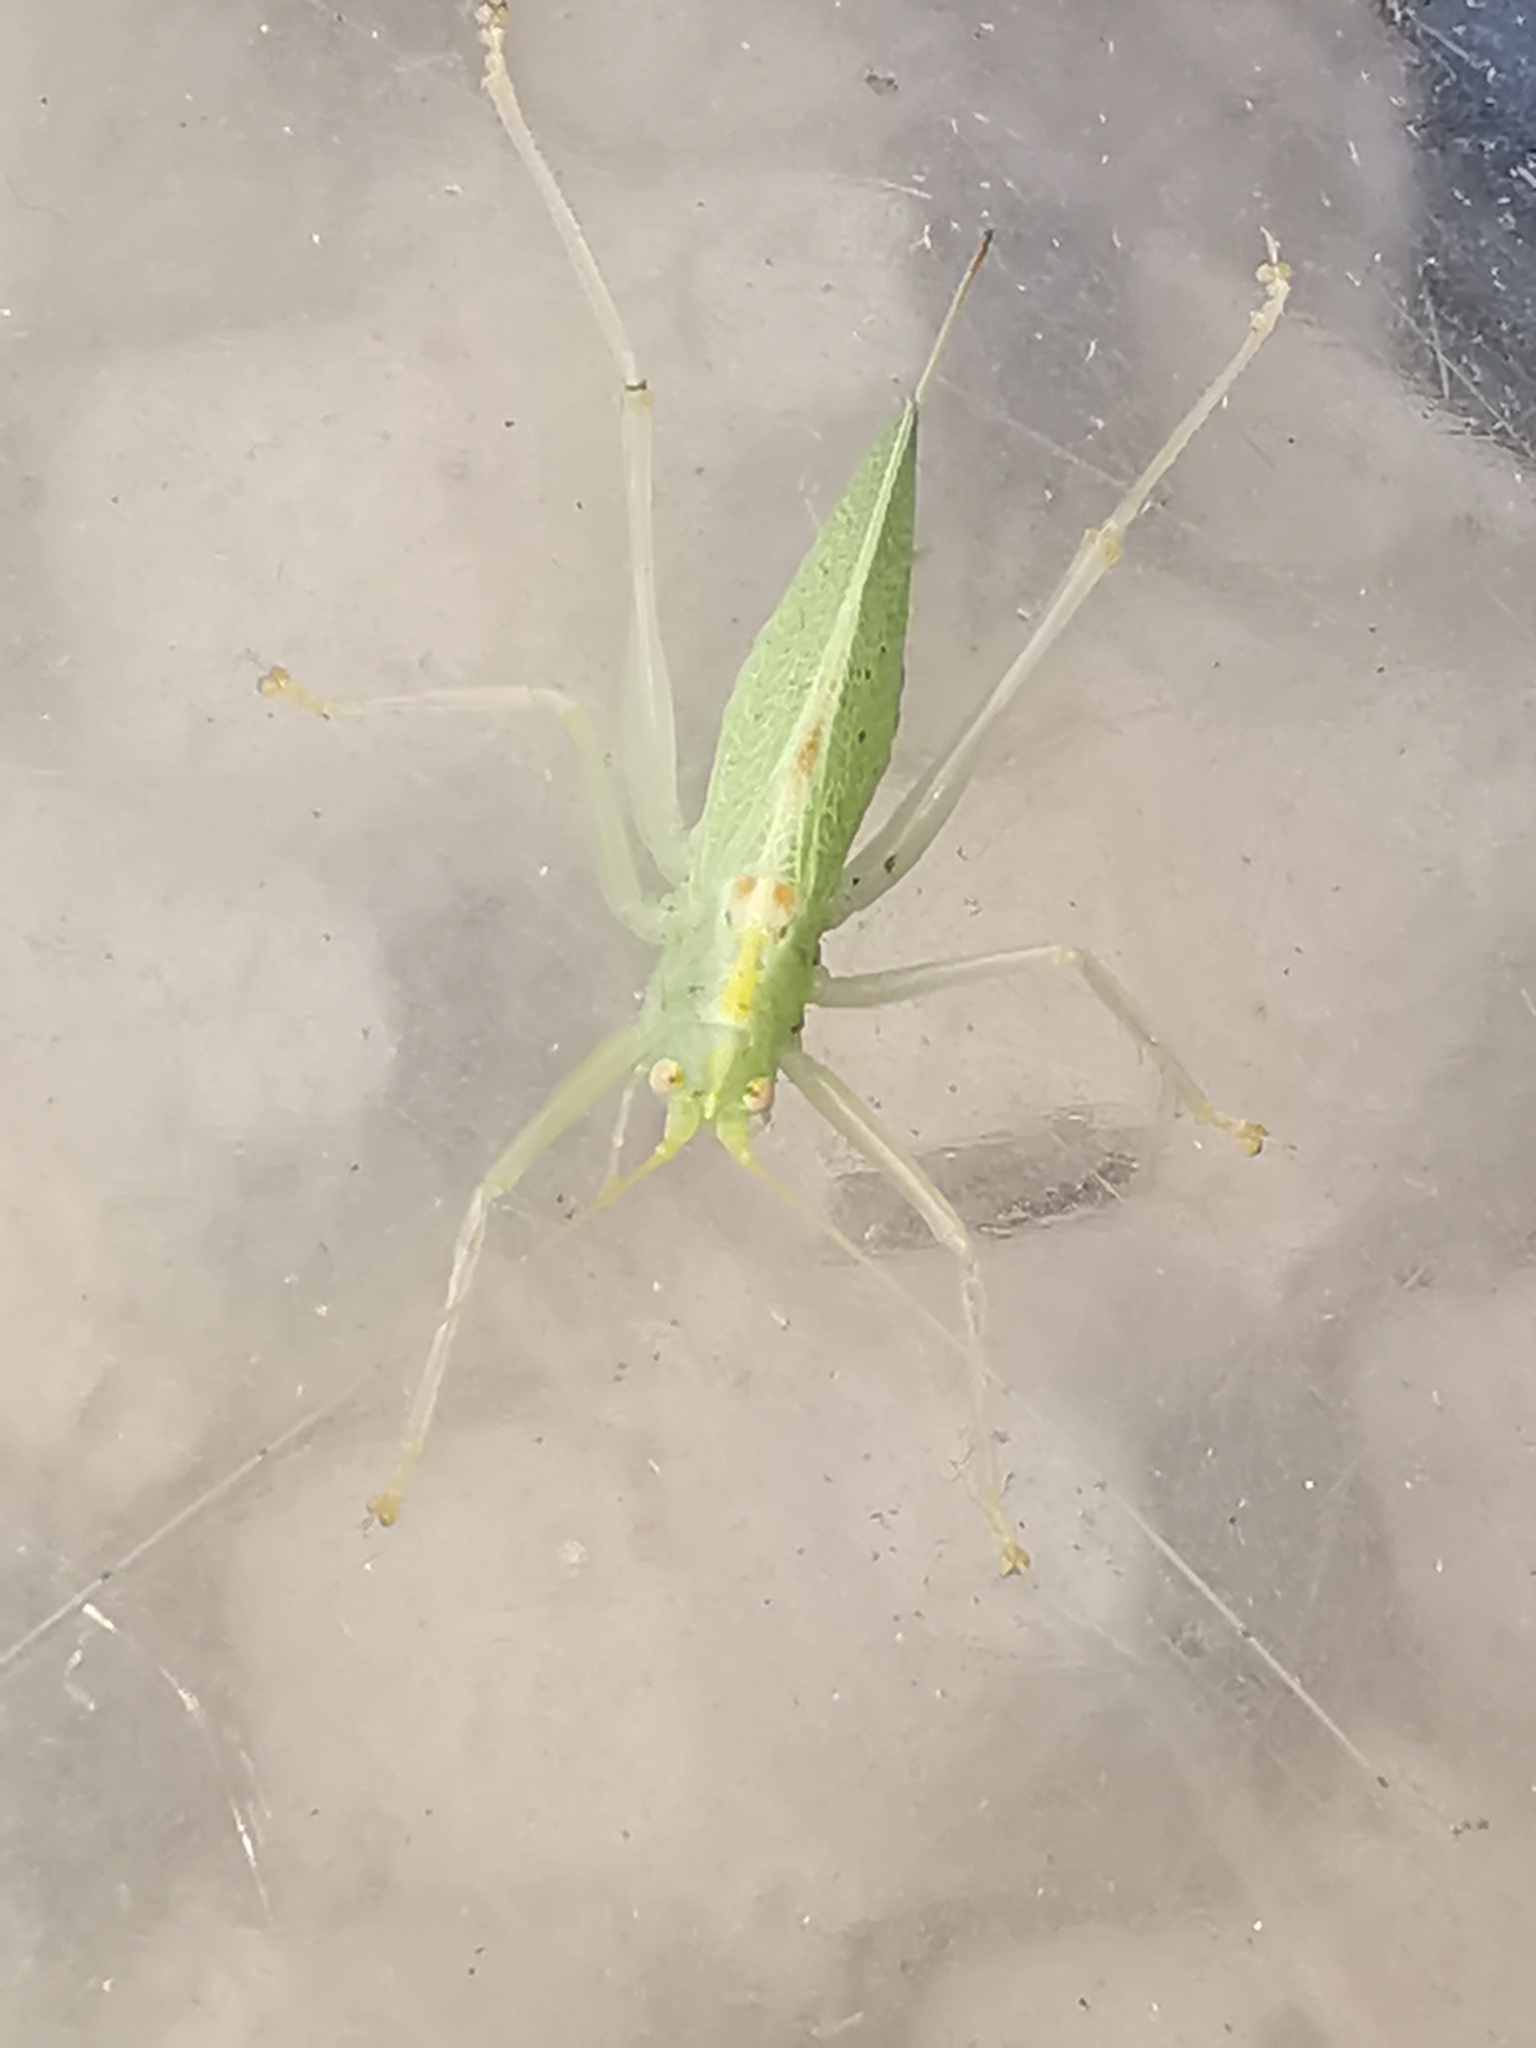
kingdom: Animalia
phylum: Arthropoda
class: Insecta
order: Orthoptera
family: Tettigoniidae
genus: Meconema
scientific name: Meconema thalassinum
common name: Oak bush-cricket
